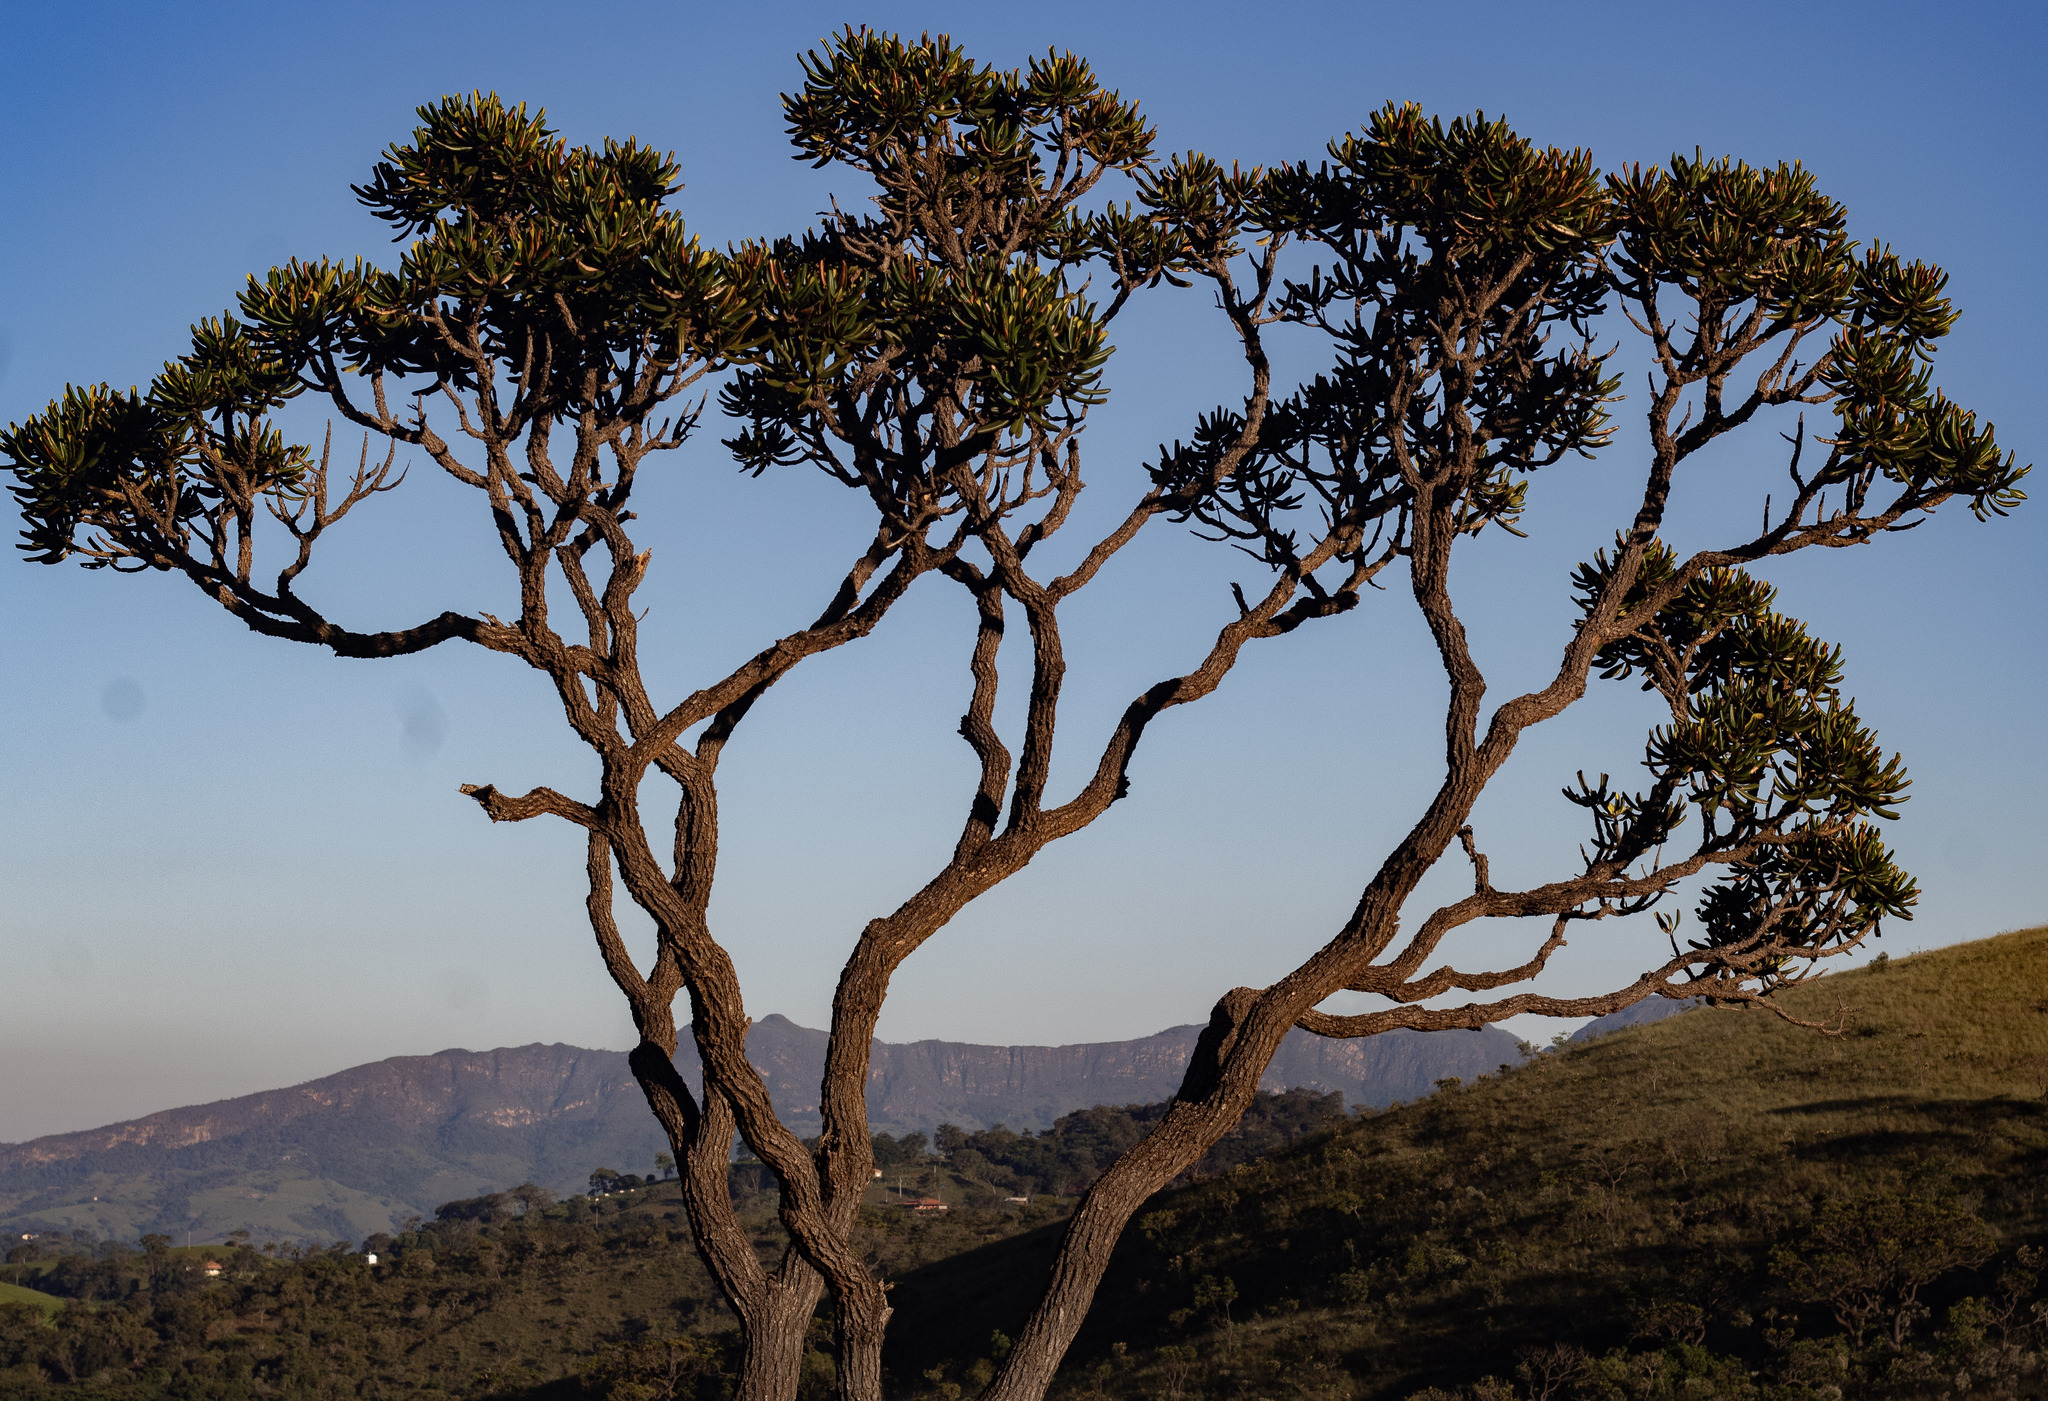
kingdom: Plantae
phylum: Tracheophyta
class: Magnoliopsida
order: Myrtales
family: Vochysiaceae
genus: Vochysia
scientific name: Vochysia thyrsoidea
